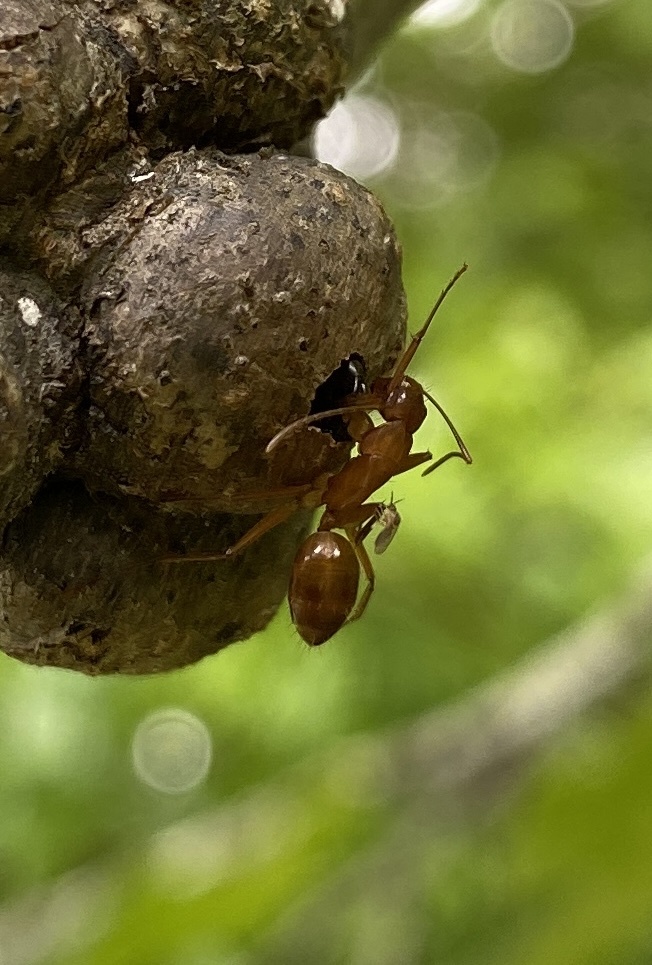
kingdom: Animalia
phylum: Arthropoda
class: Insecta
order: Hymenoptera
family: Formicidae
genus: Camponotus
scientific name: Camponotus castaneus
